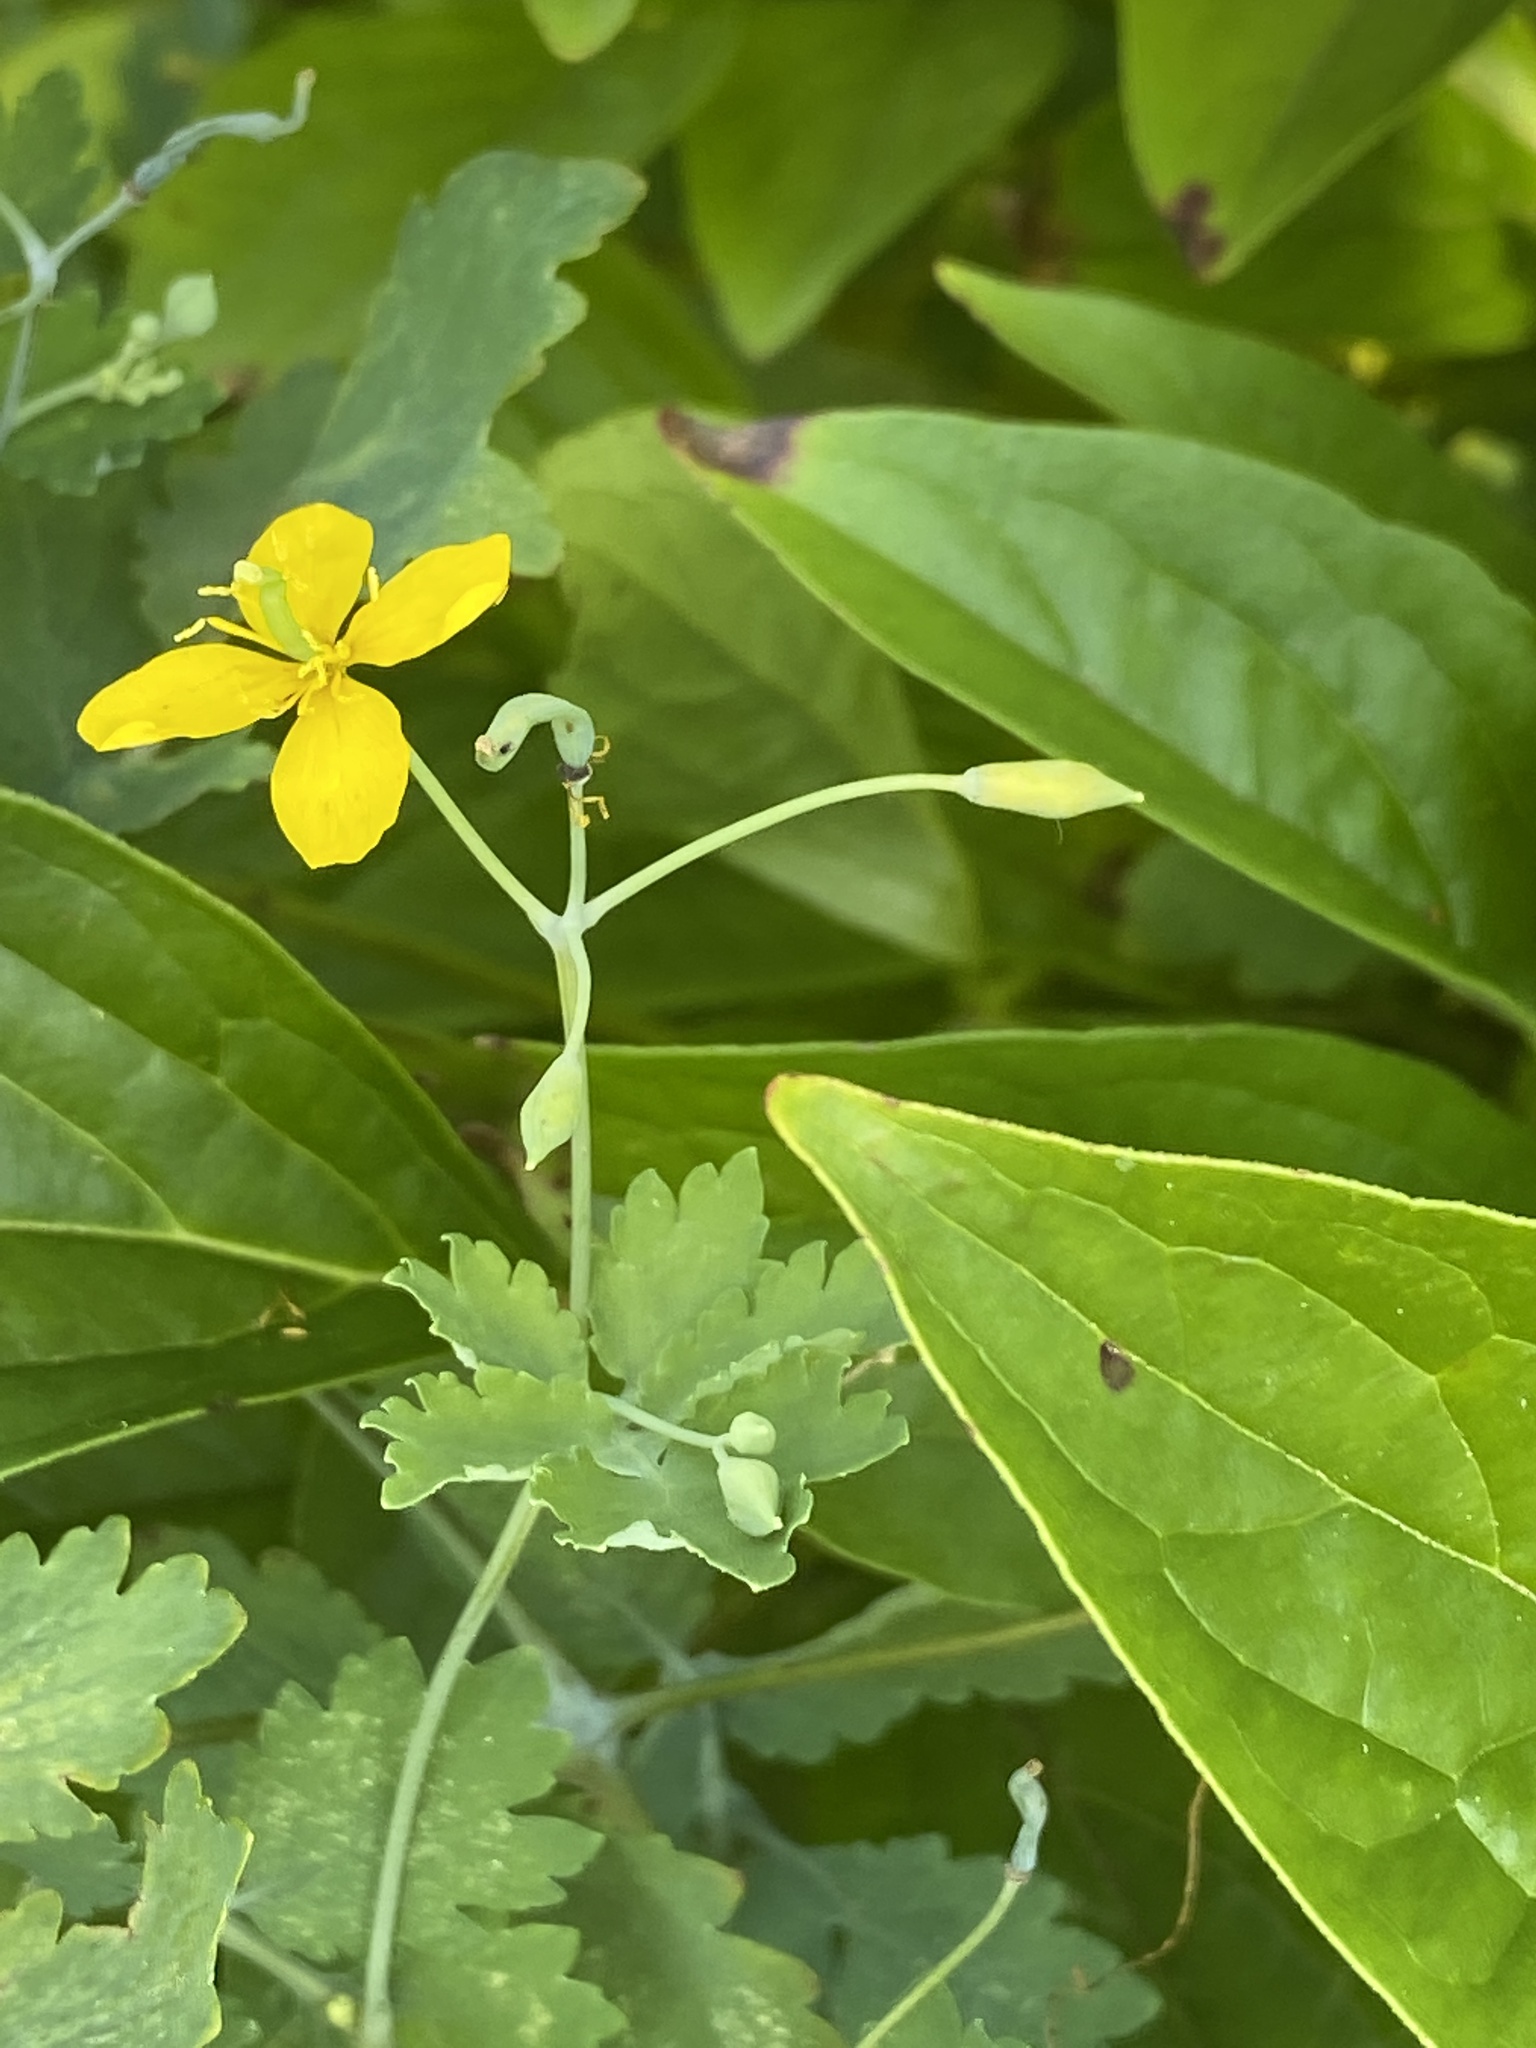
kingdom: Plantae
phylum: Tracheophyta
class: Magnoliopsida
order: Ranunculales
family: Papaveraceae
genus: Chelidonium
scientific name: Chelidonium majus
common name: Greater celandine
